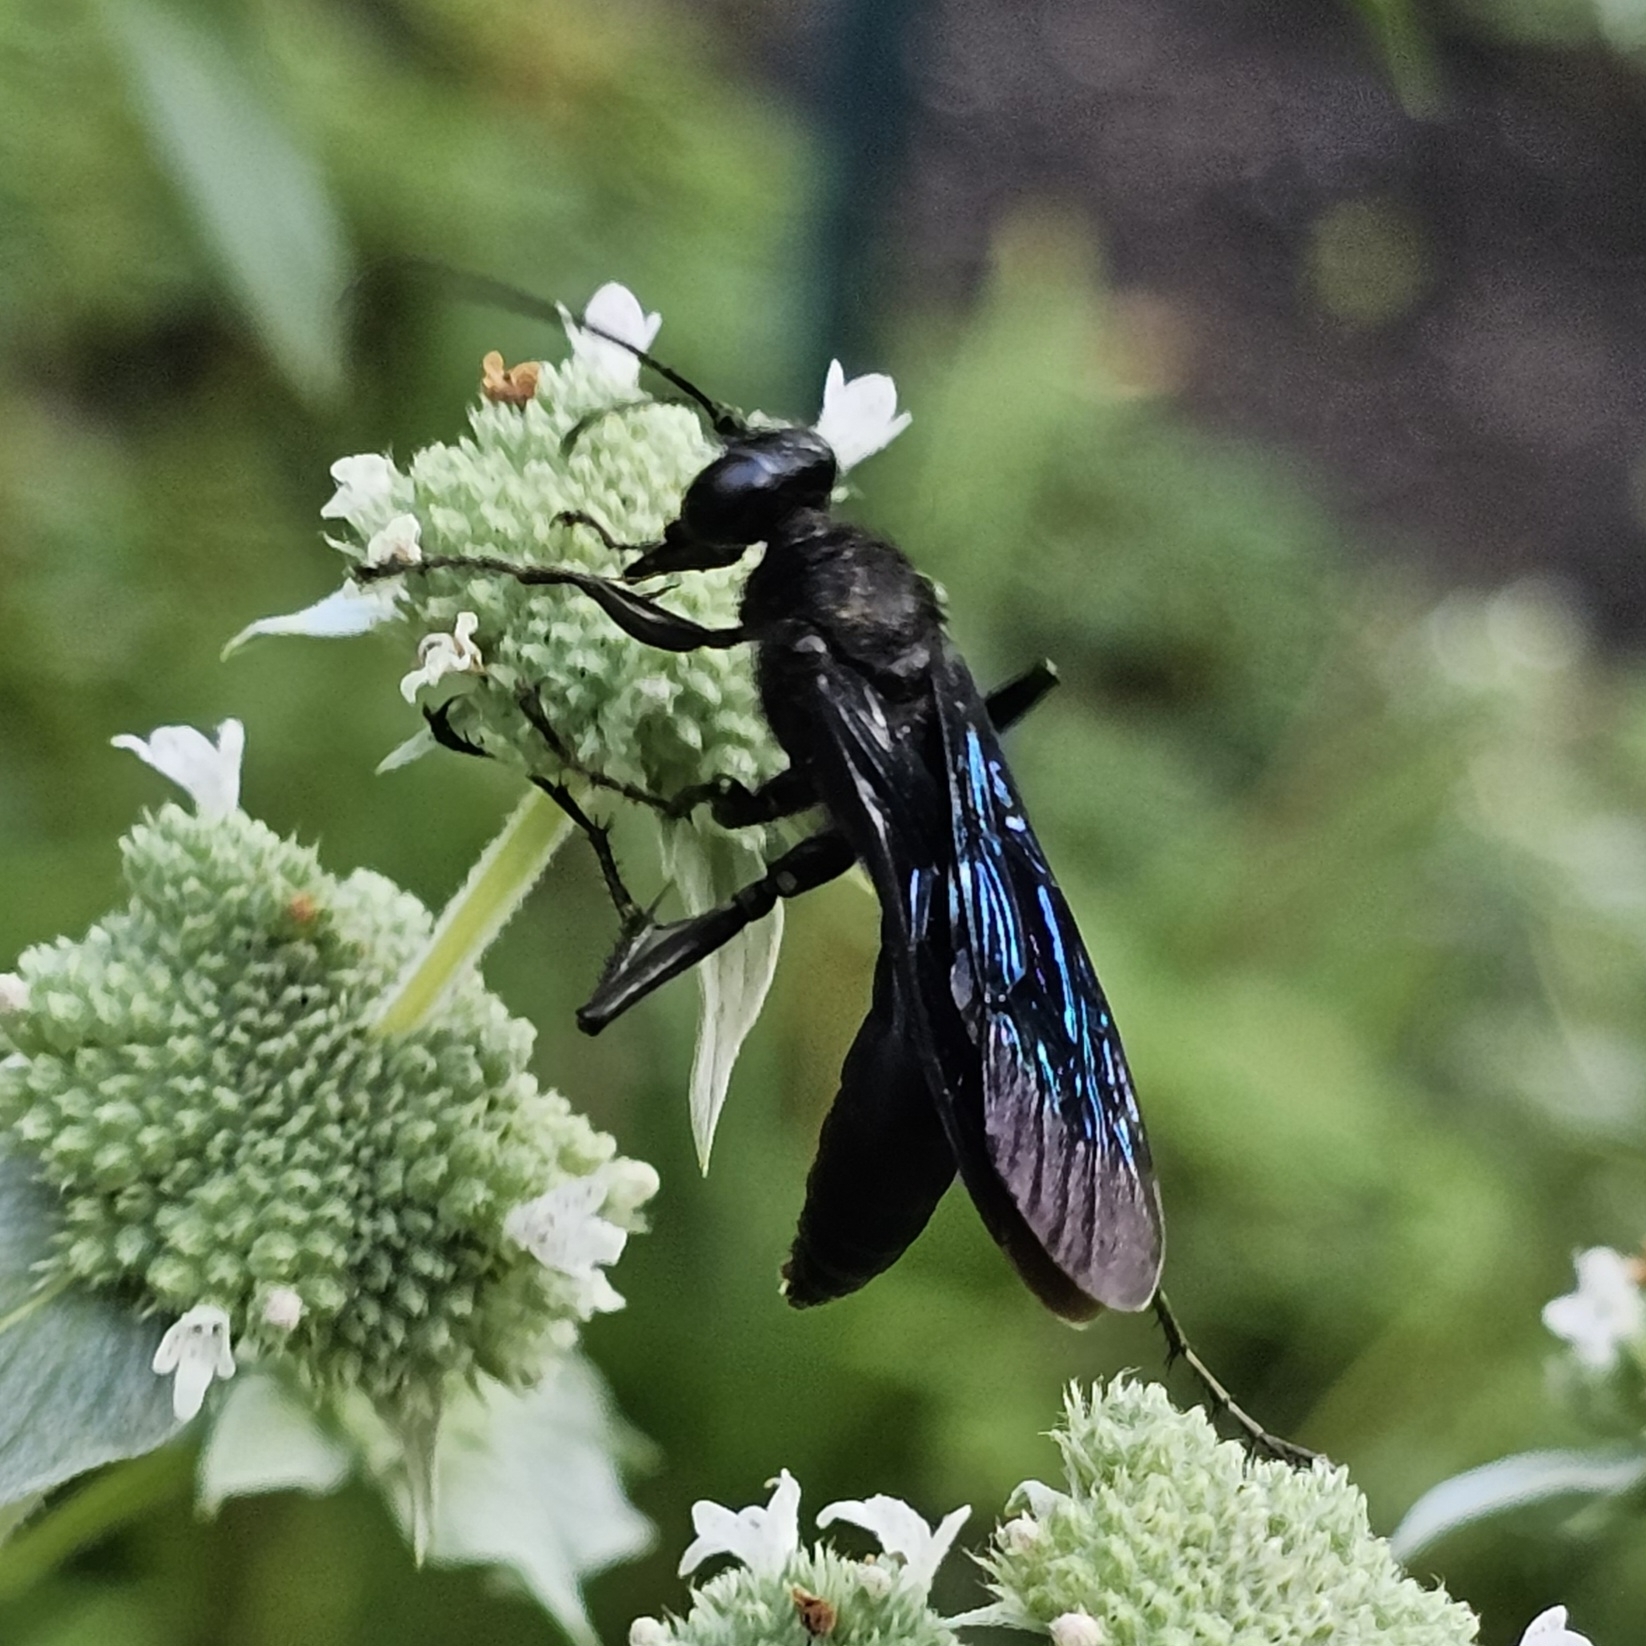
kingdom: Animalia
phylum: Arthropoda
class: Insecta
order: Hymenoptera
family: Sphecidae
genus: Sphex
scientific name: Sphex pensylvanicus
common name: Great black digger wasp
